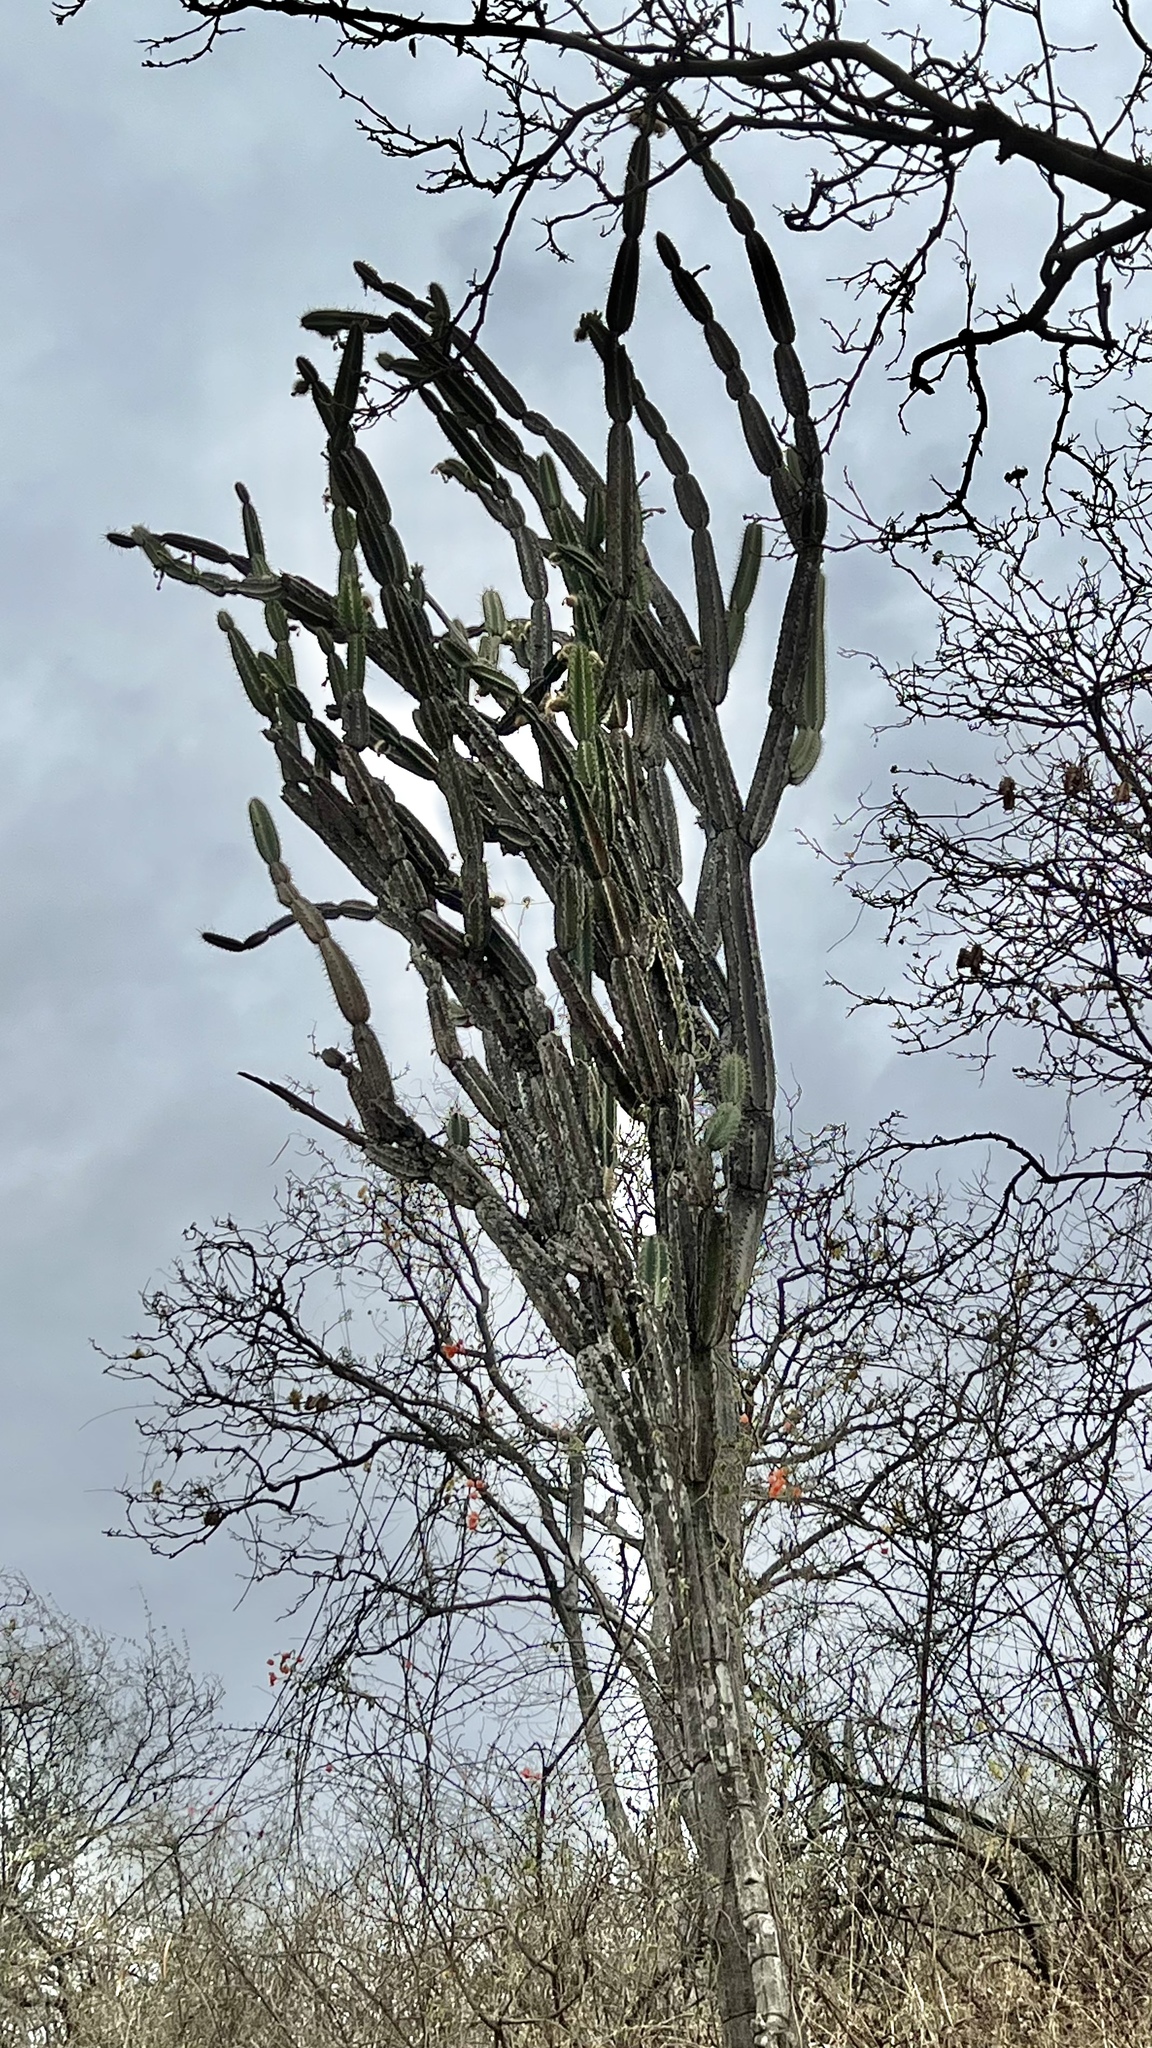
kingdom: Plantae
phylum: Tracheophyta
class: Magnoliopsida
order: Caryophyllales
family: Cactaceae
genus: Armatocereus
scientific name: Armatocereus cartwrightianus
